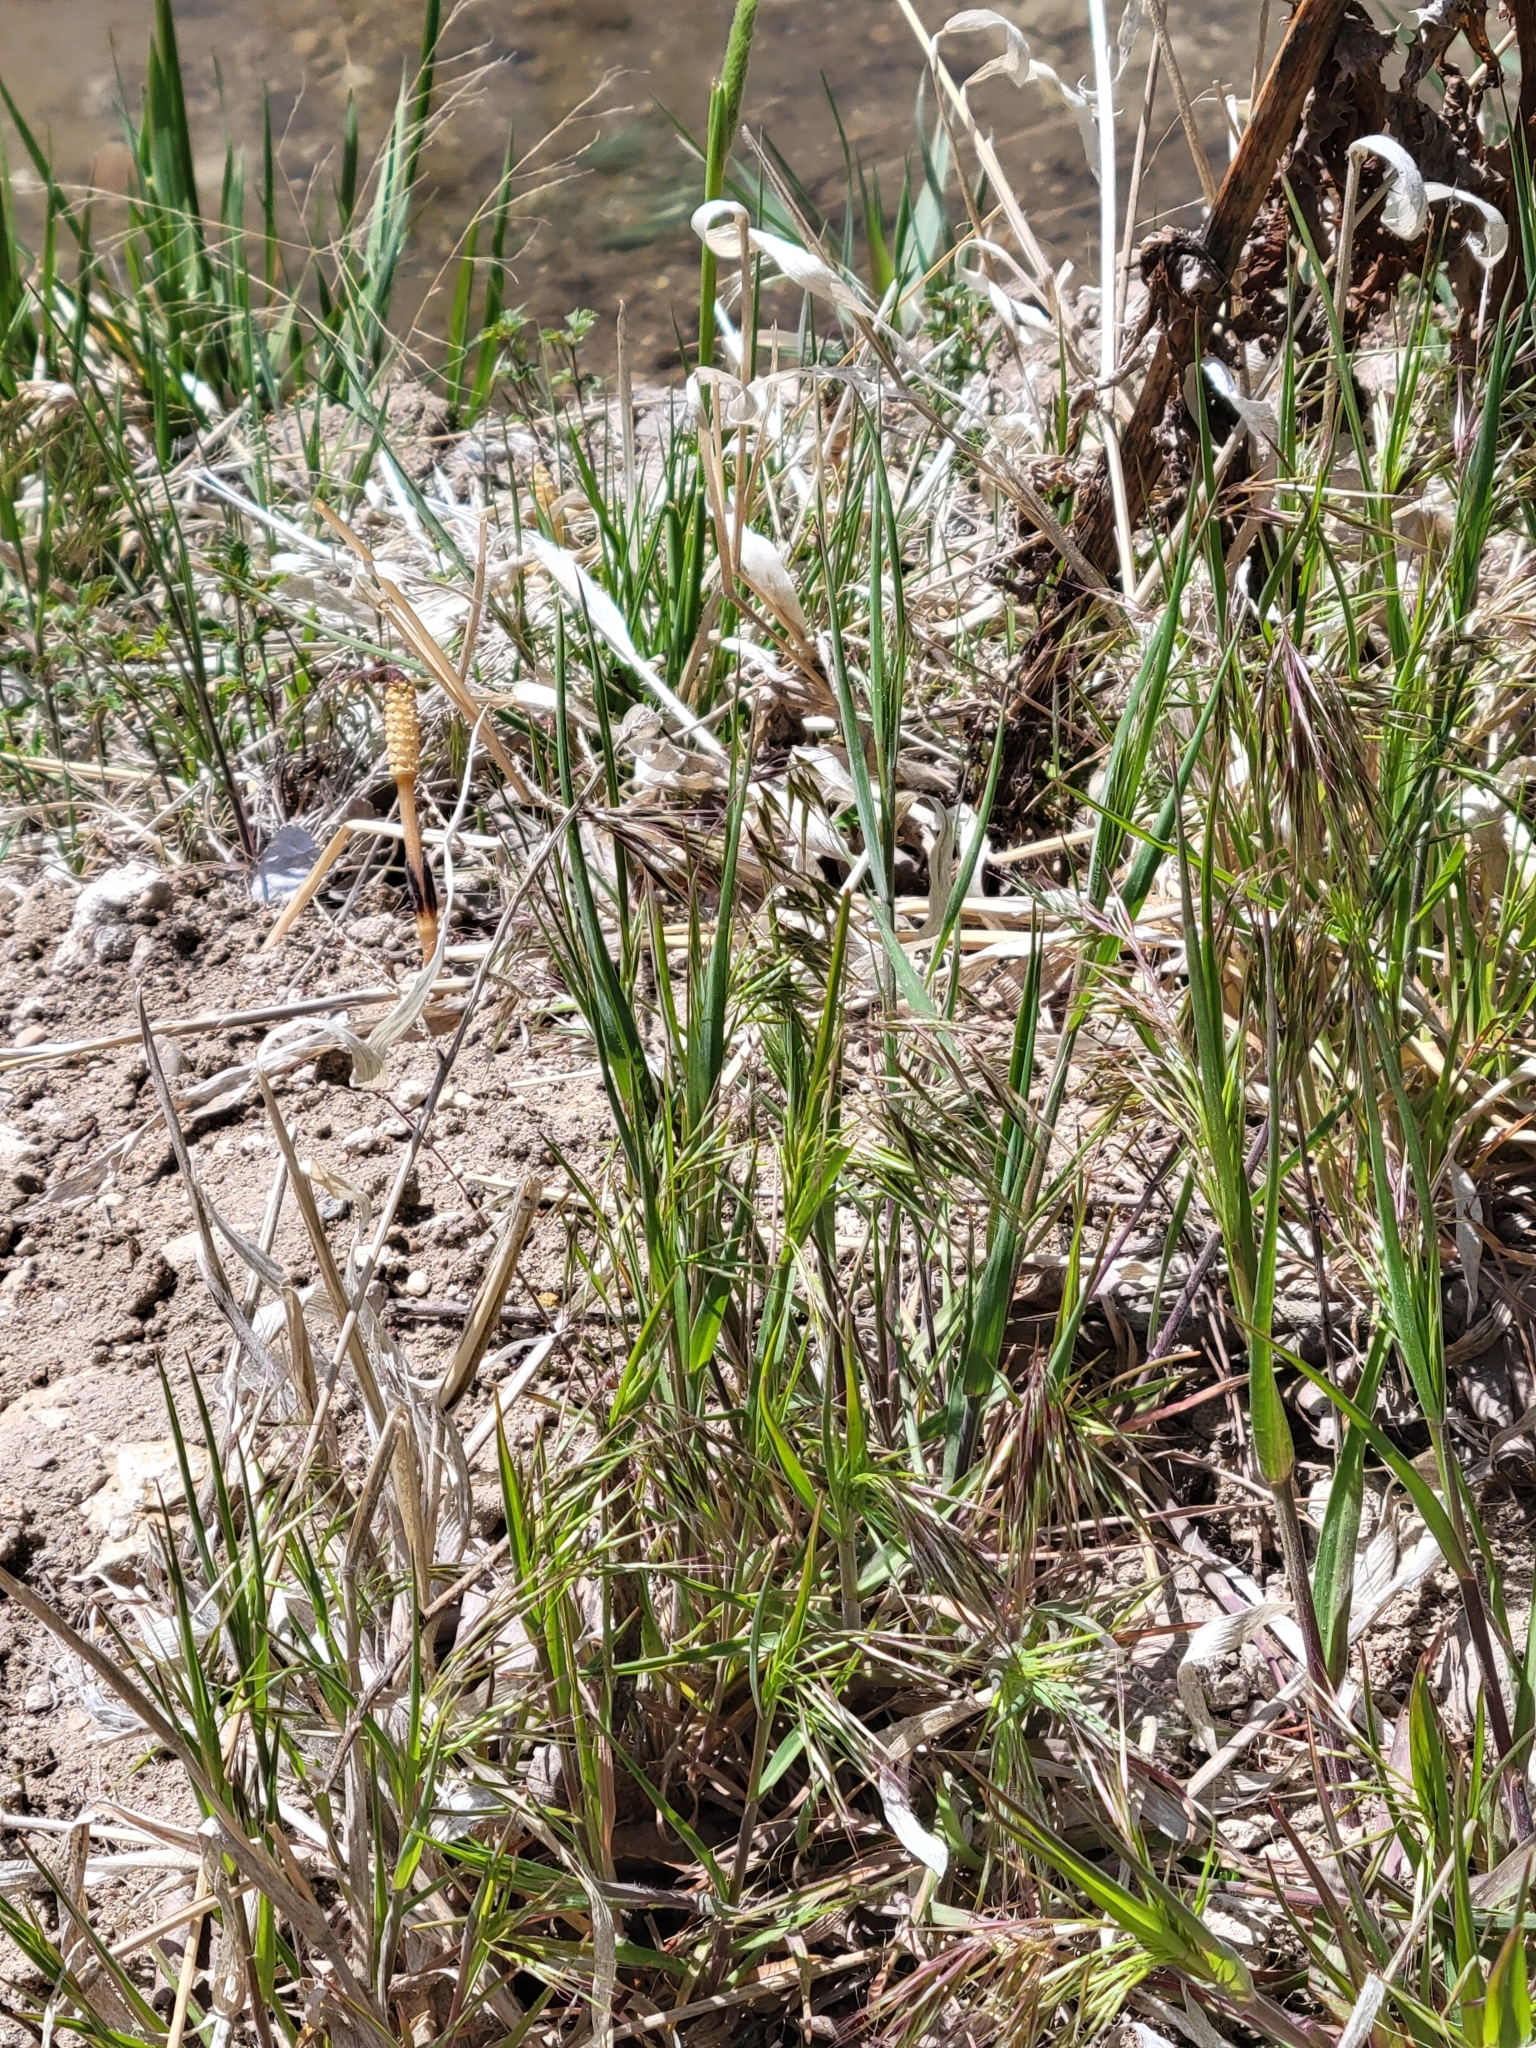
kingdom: Plantae
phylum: Tracheophyta
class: Liliopsida
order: Poales
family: Poaceae
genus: Bromus
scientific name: Bromus tectorum
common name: Cheatgrass
